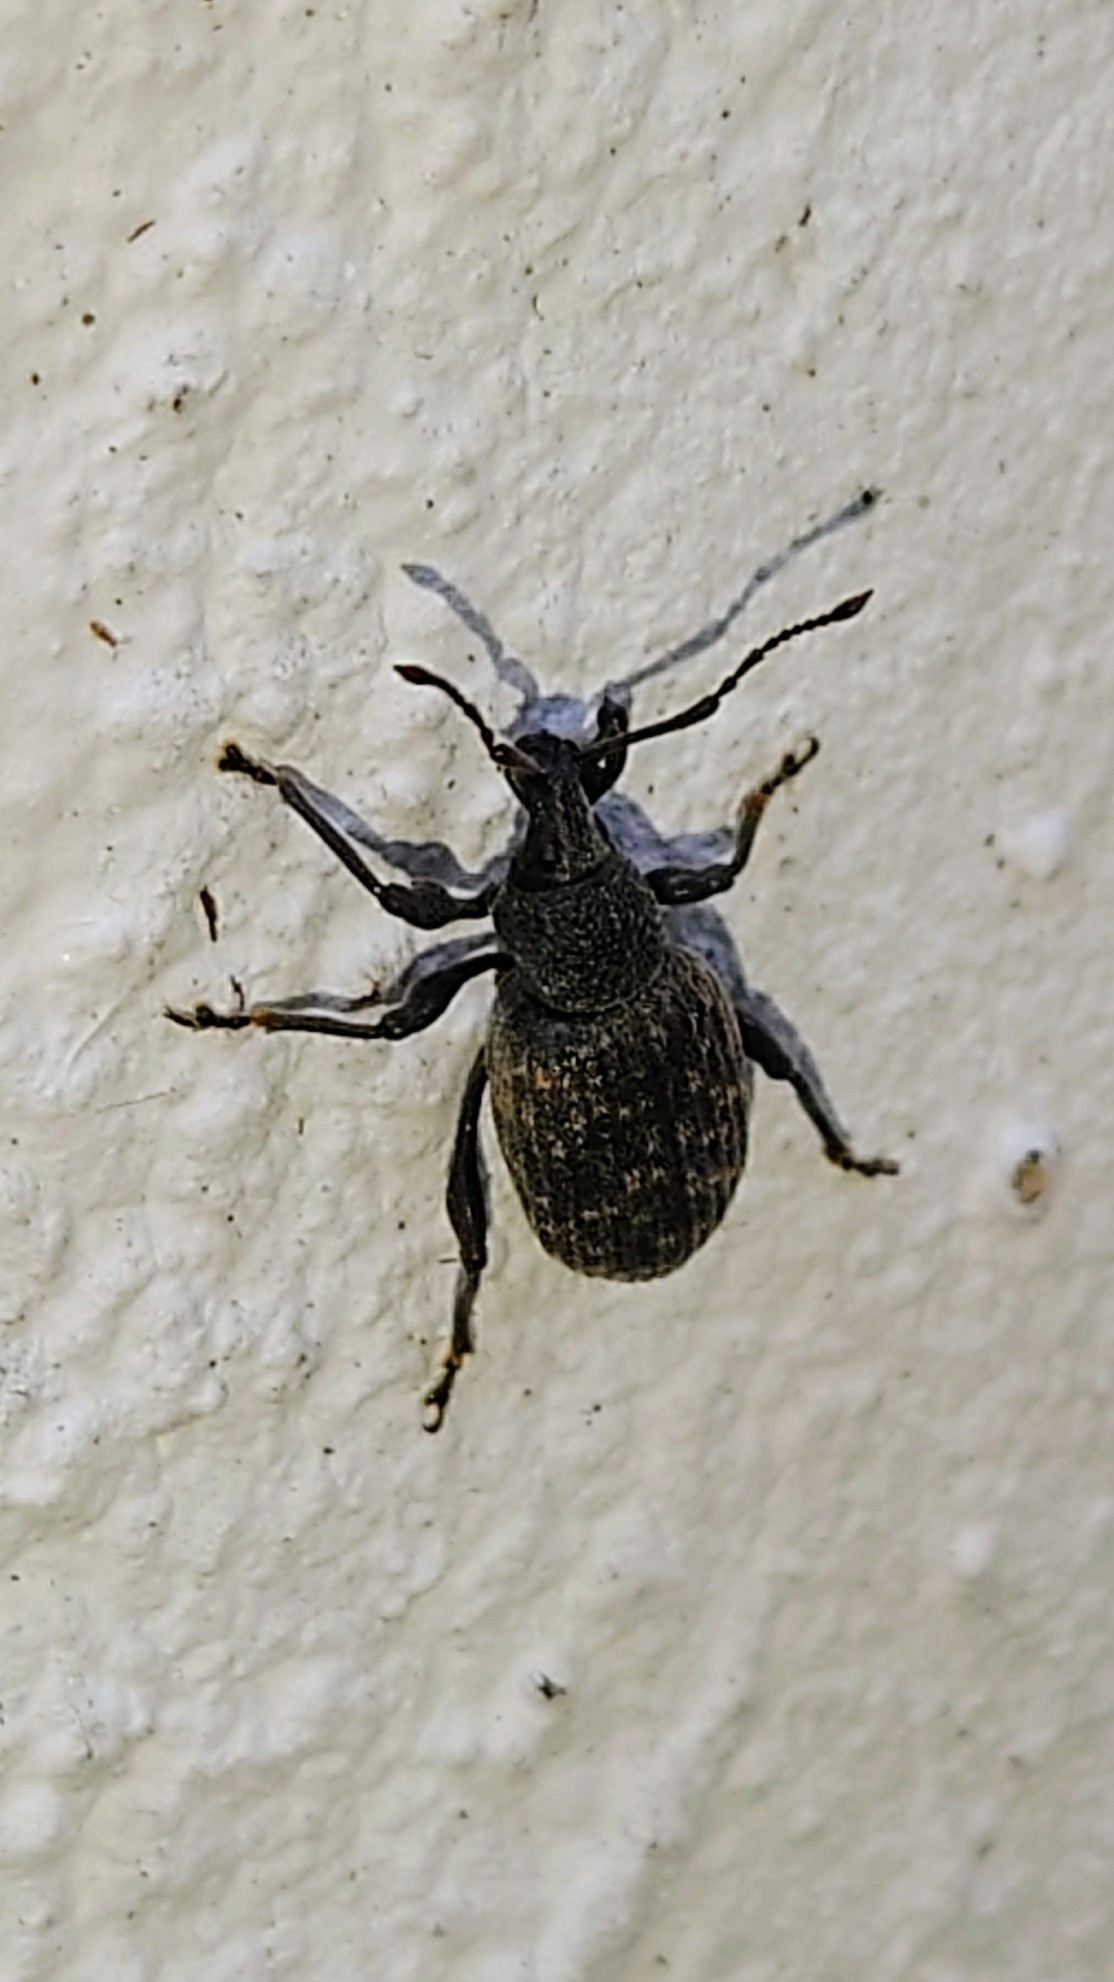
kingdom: Animalia
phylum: Arthropoda
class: Insecta
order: Coleoptera
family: Curculionidae
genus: Otiorhynchus
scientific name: Otiorhynchus sulcatus
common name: Black vine weevil
